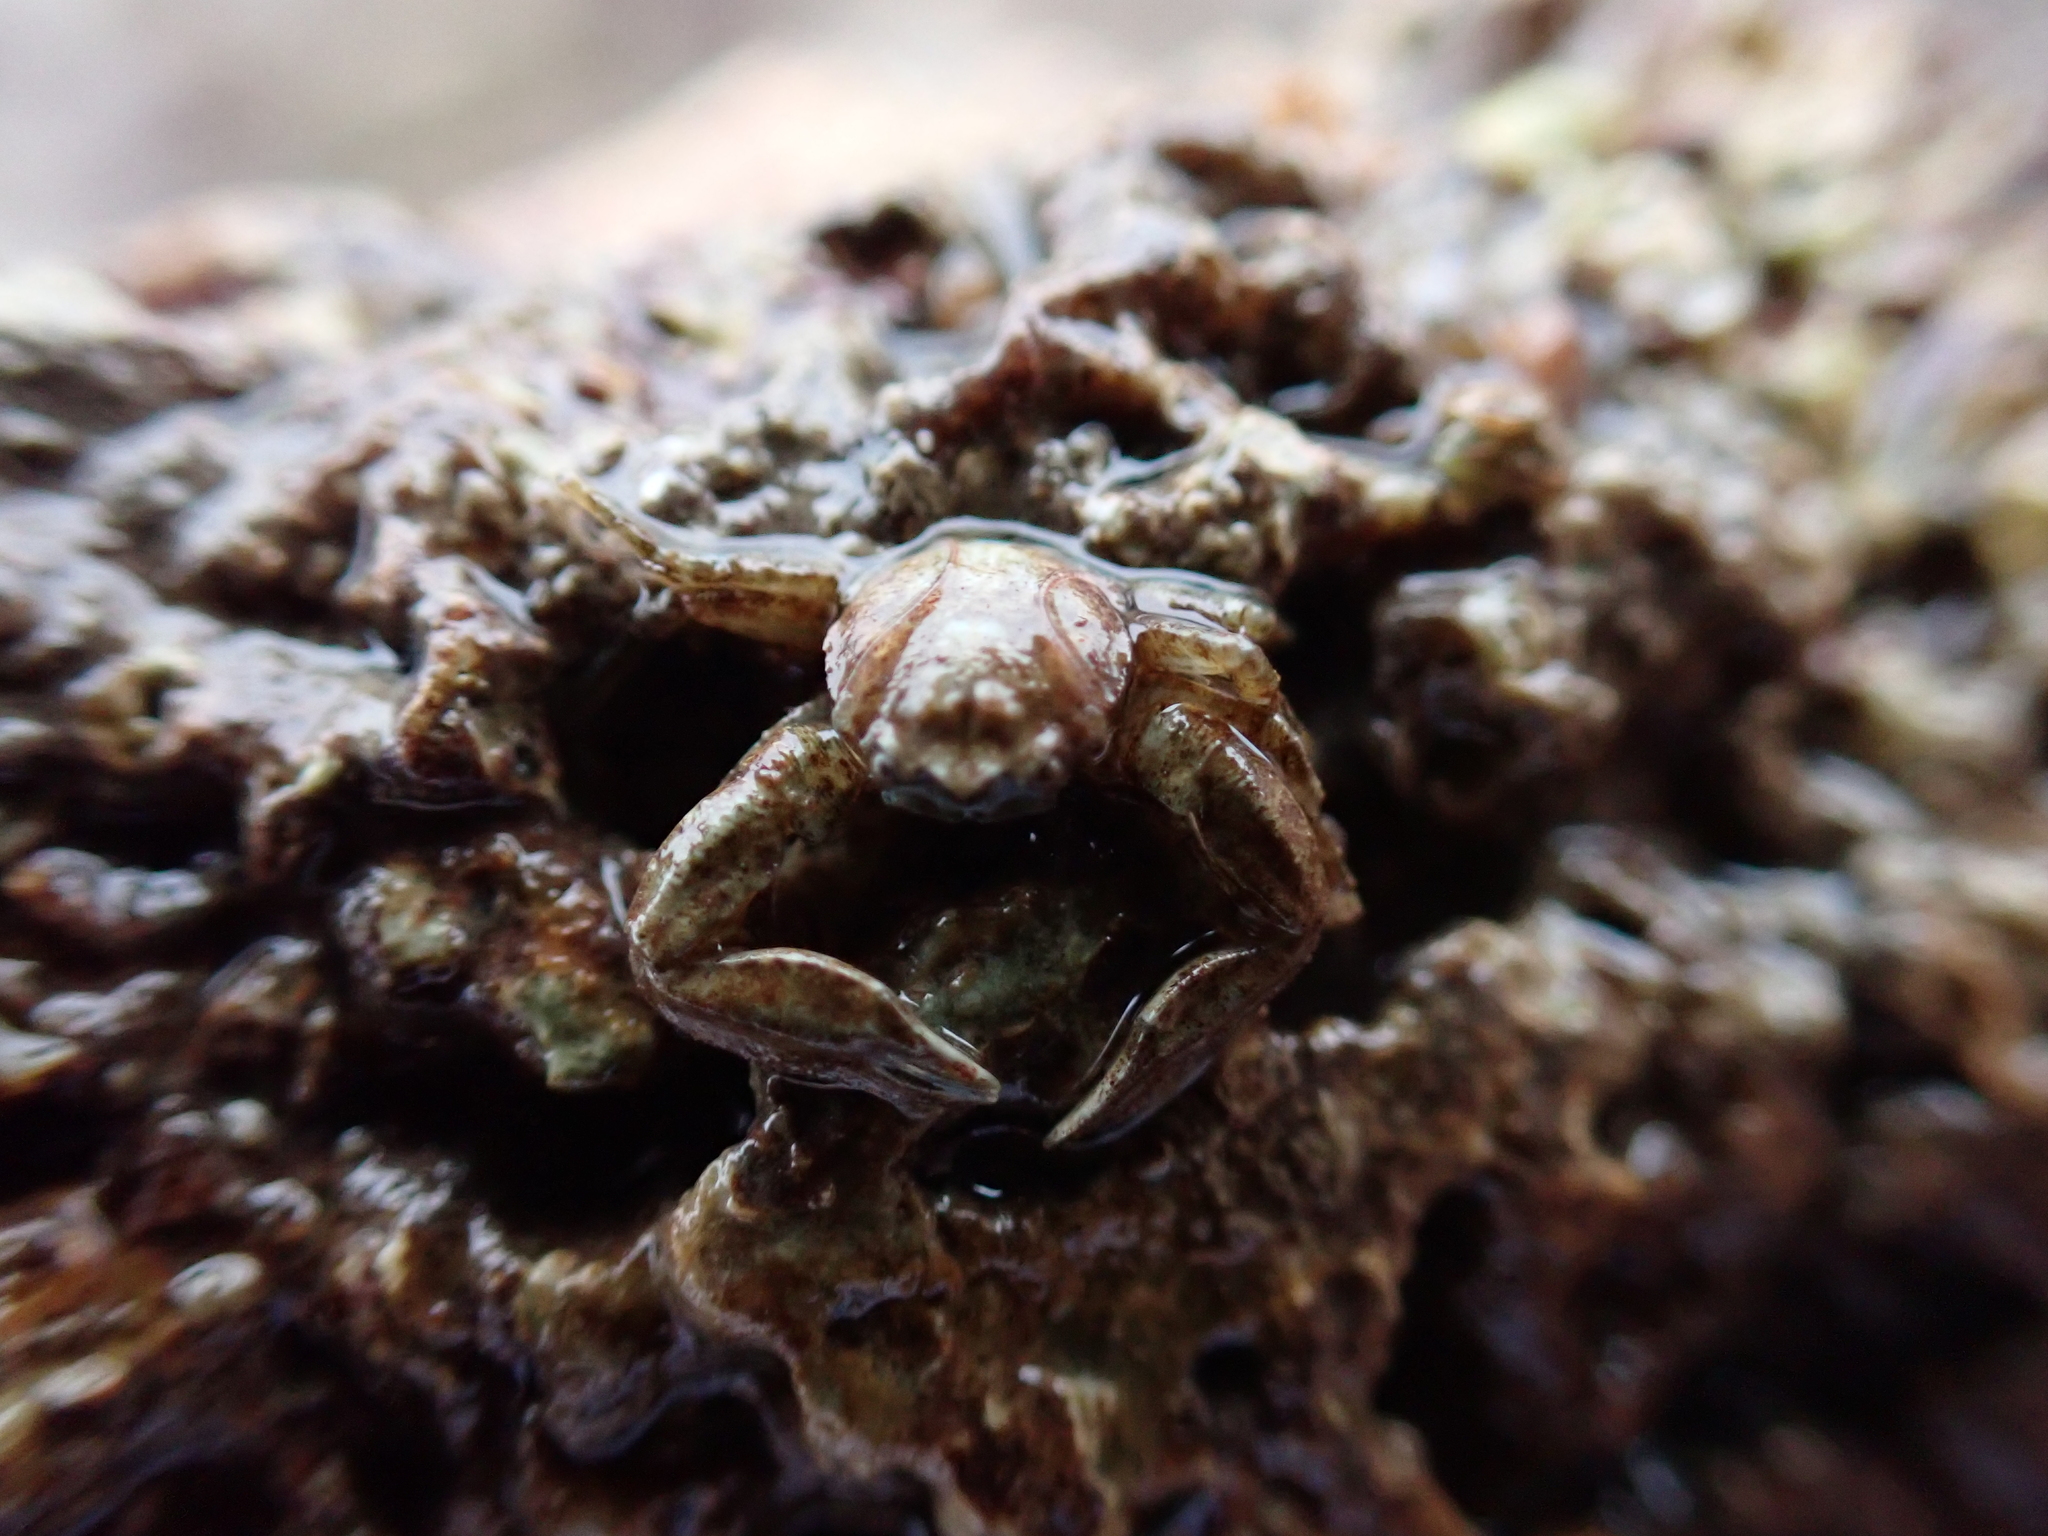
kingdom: Animalia
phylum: Arthropoda
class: Malacostraca
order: Decapoda
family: Porcellanidae
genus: Pisidia
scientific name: Pisidia longicornis
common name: Long clawed porcelain crab
